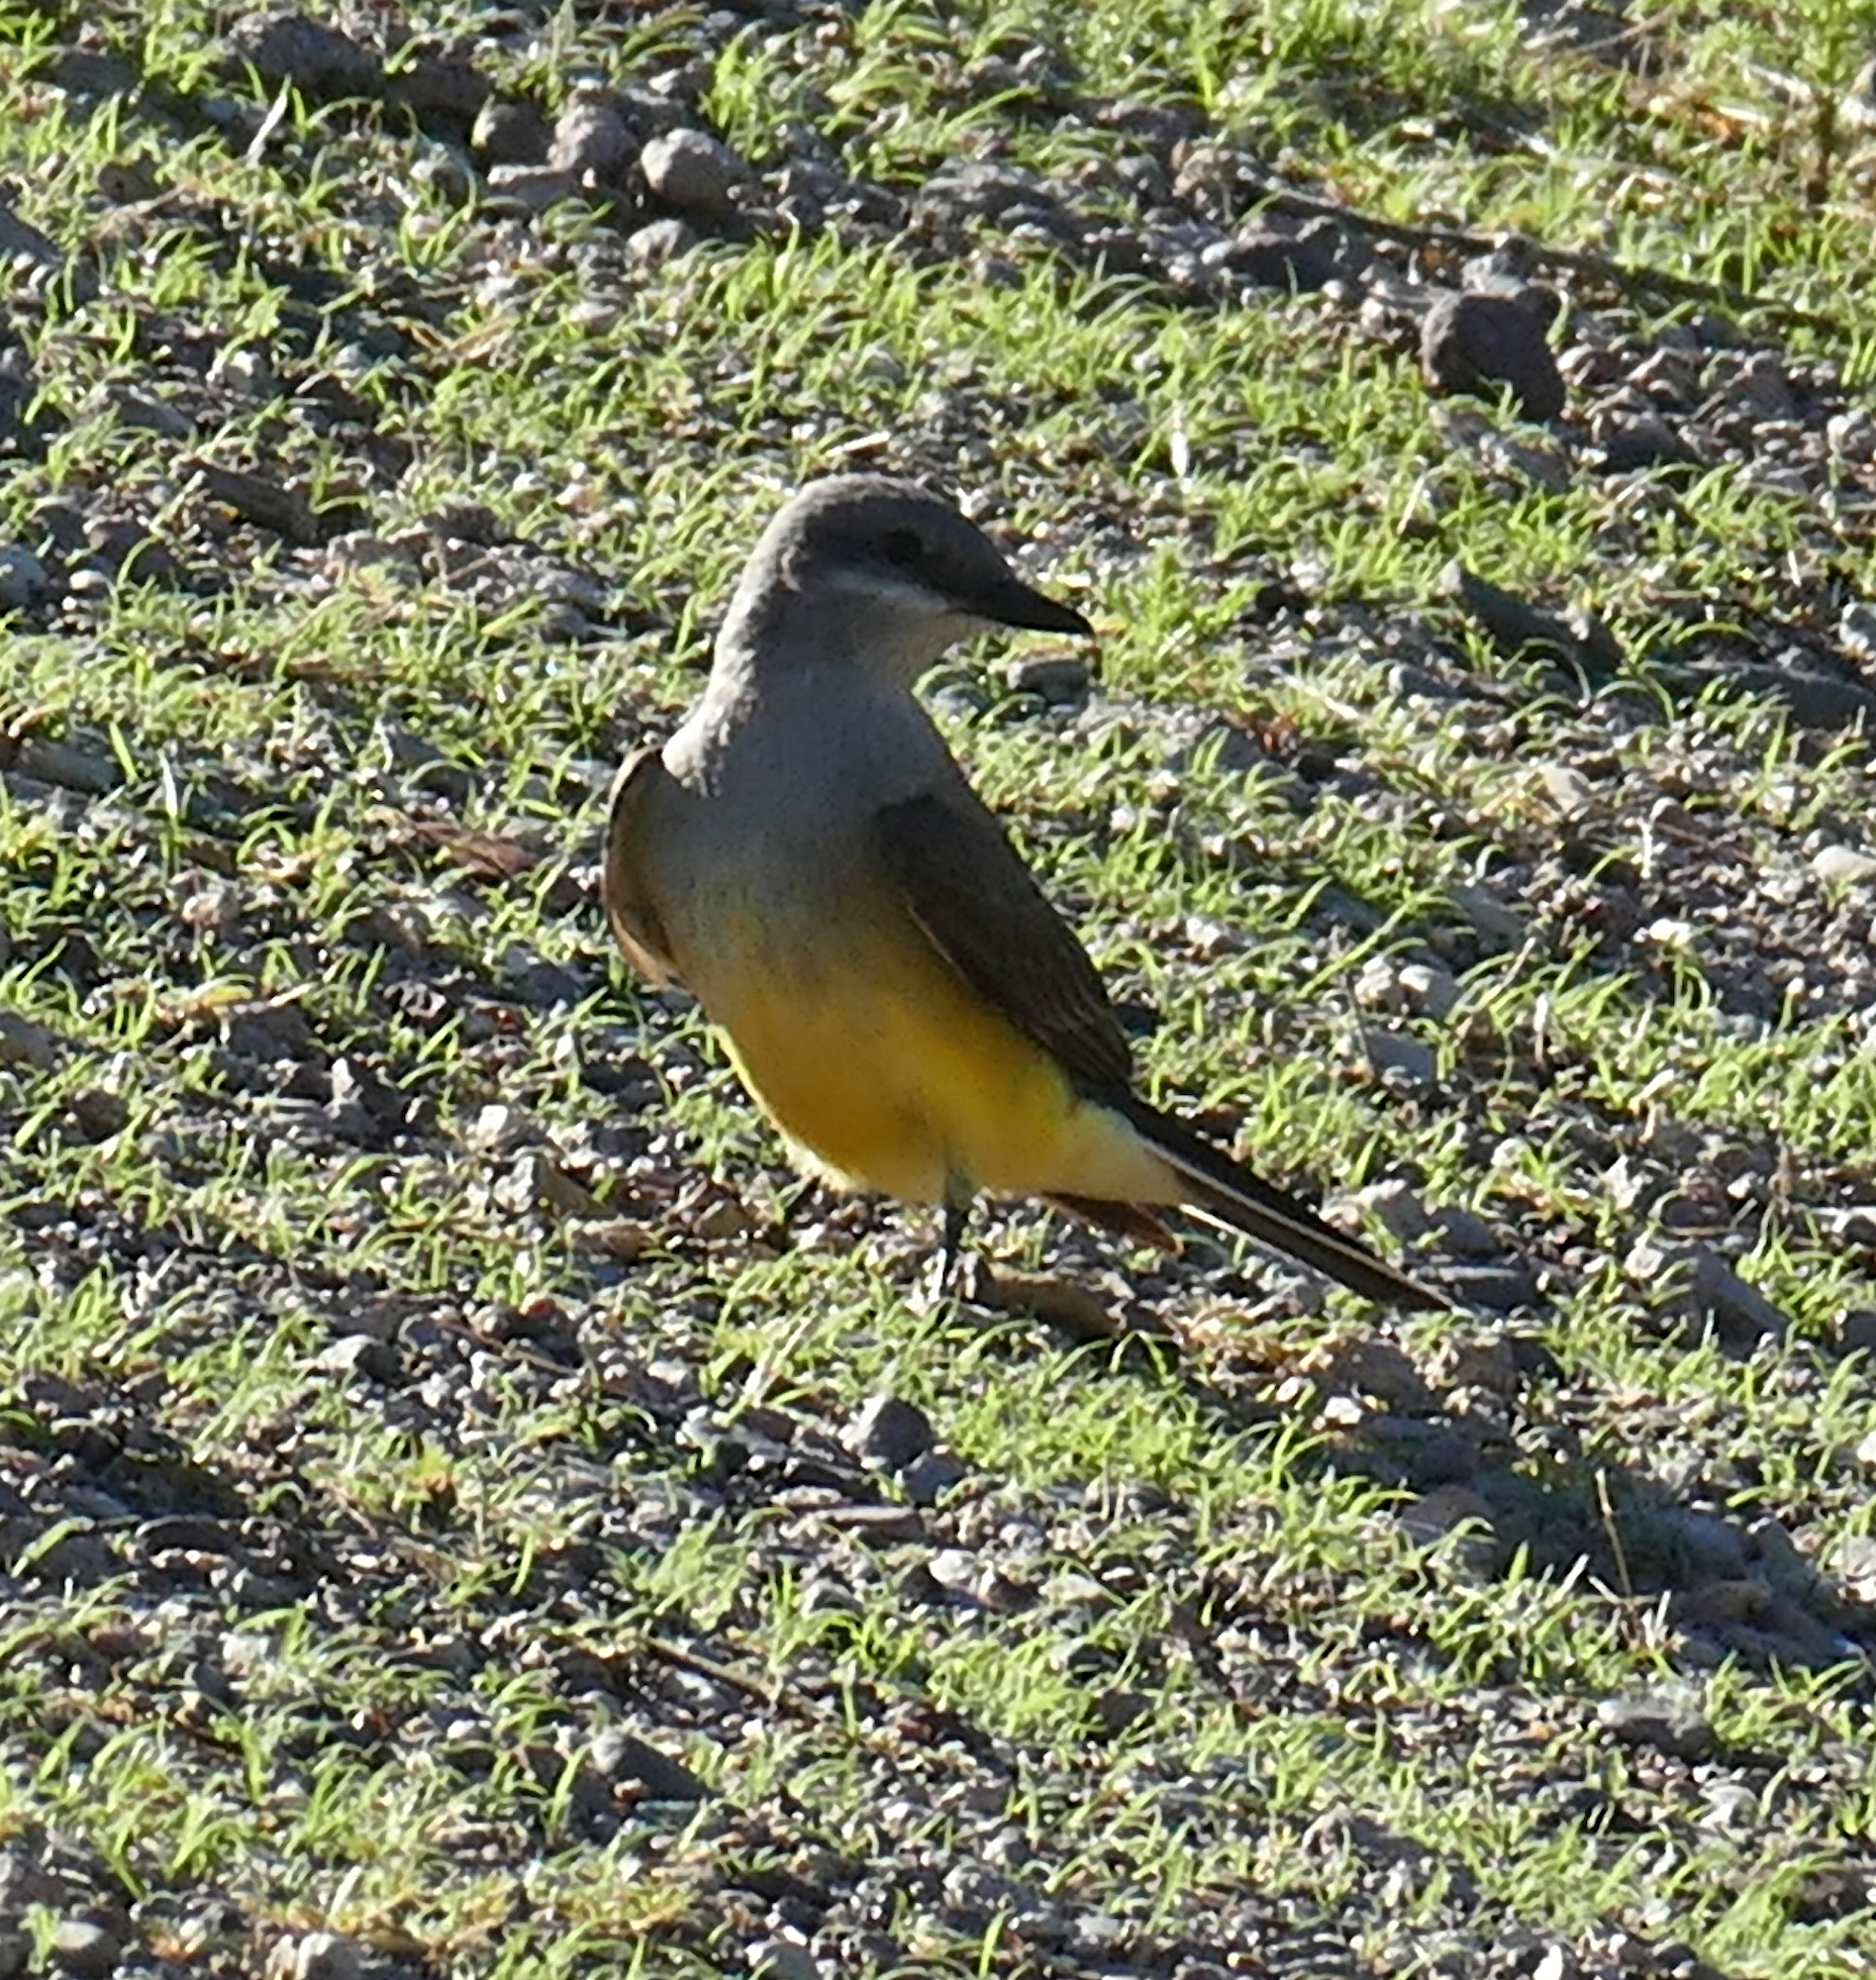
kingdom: Animalia
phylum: Chordata
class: Aves
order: Passeriformes
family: Tyrannidae
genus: Tyrannus
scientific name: Tyrannus verticalis
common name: Western kingbird
